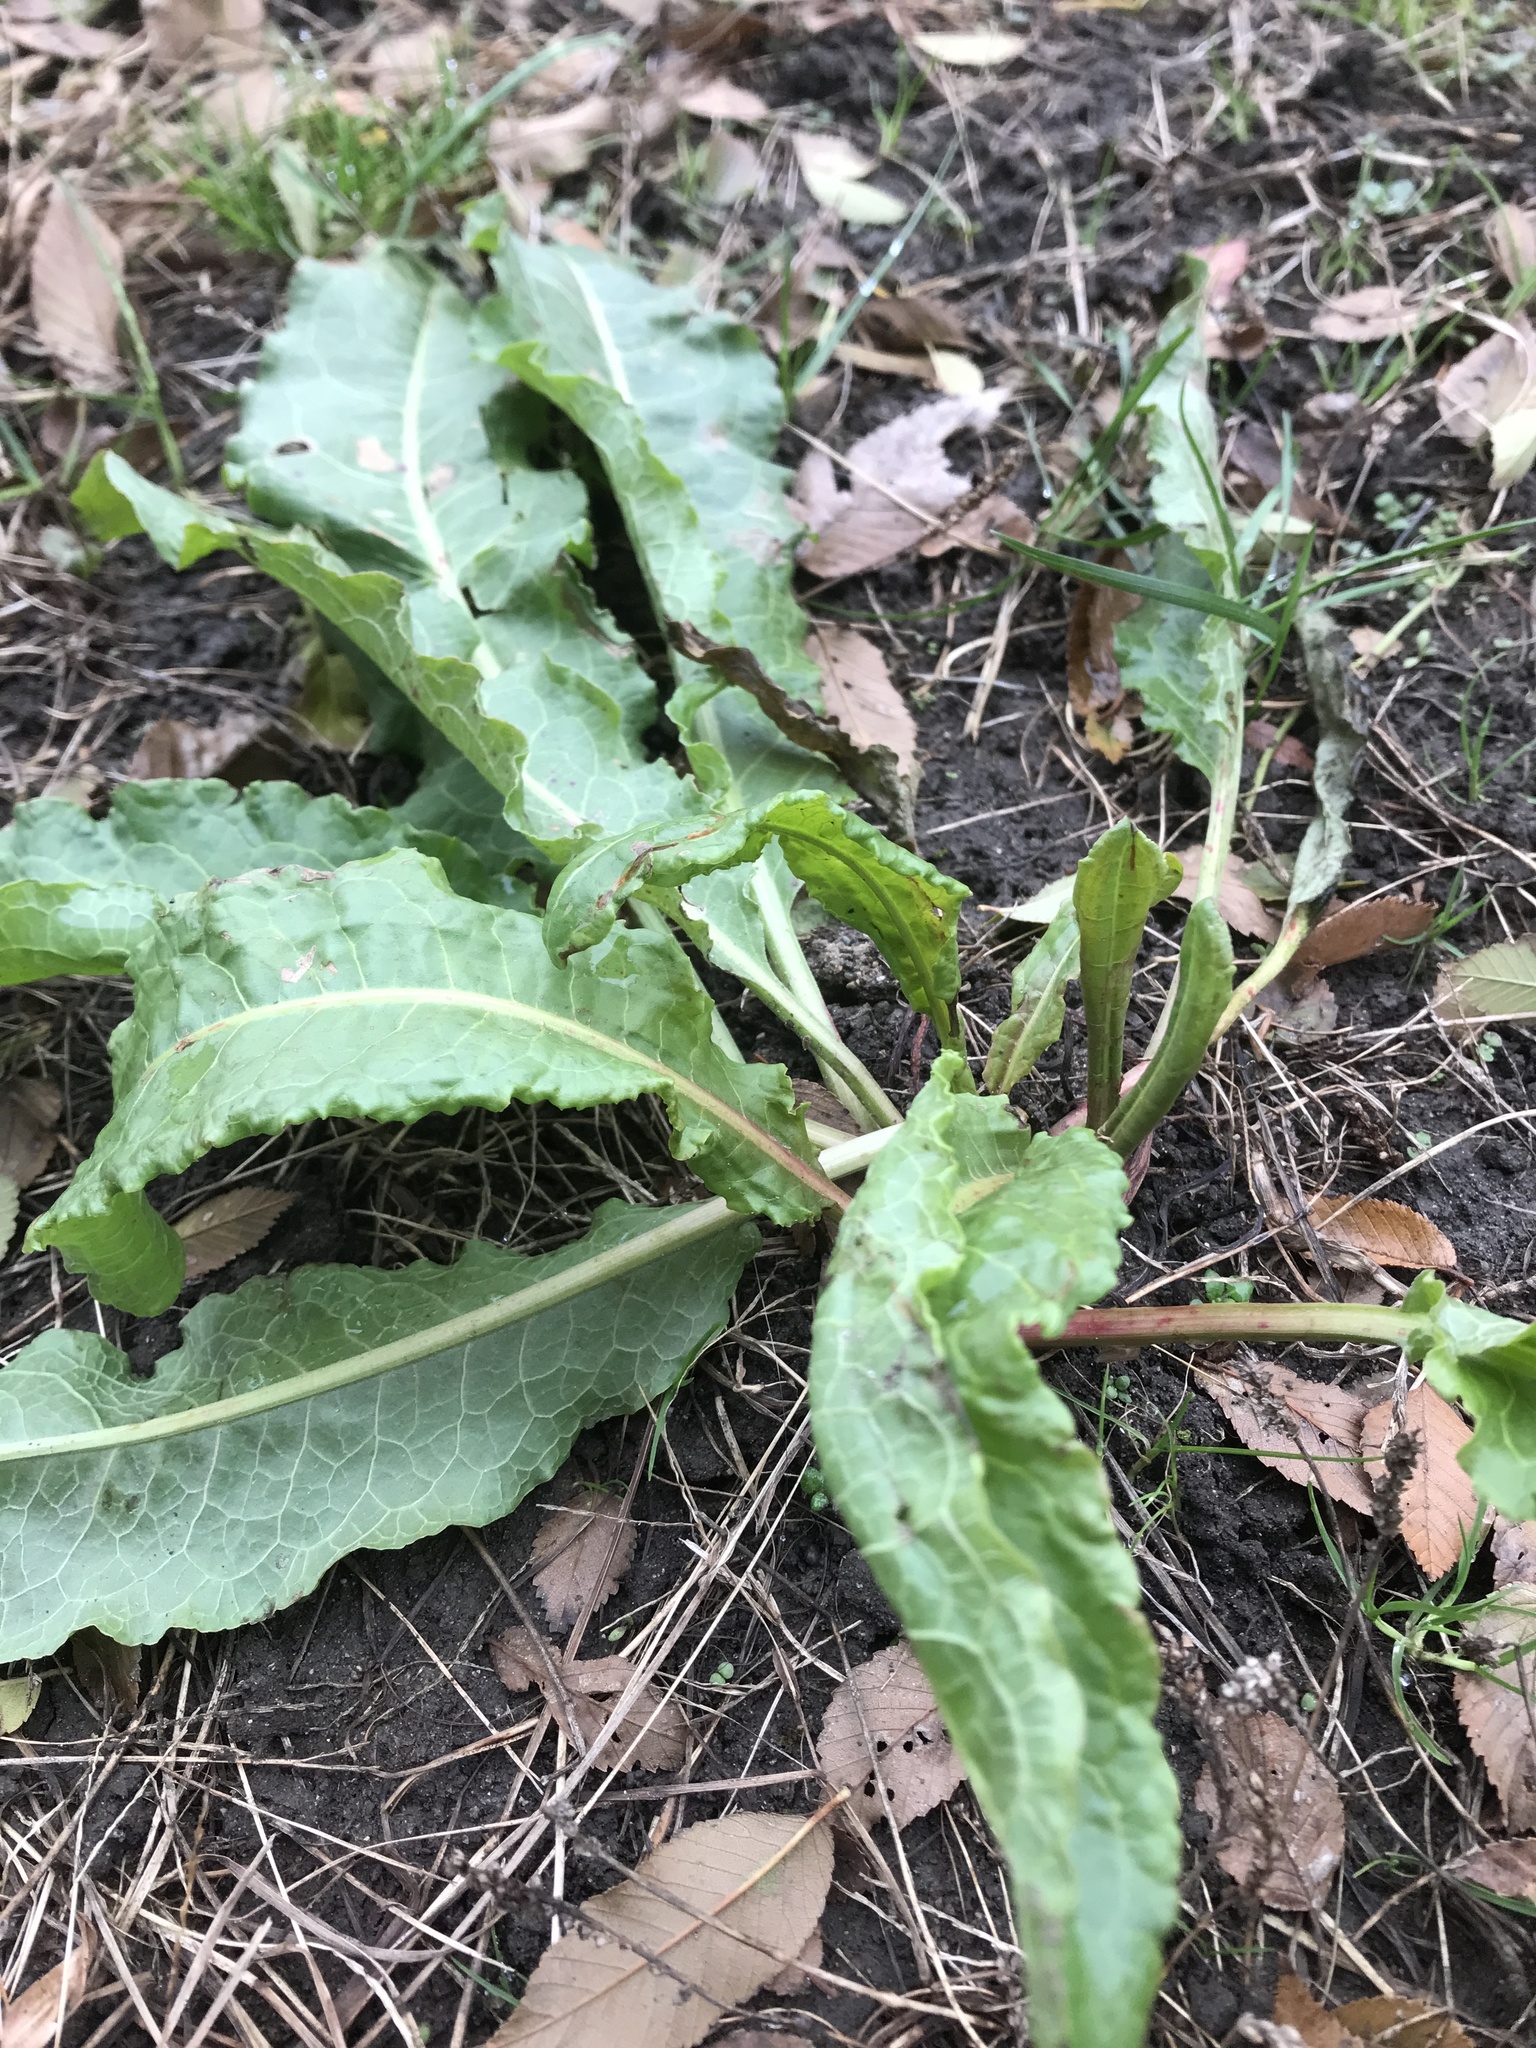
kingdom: Plantae
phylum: Tracheophyta
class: Magnoliopsida
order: Caryophyllales
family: Polygonaceae
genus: Rumex
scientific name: Rumex crispus
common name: Curled dock
